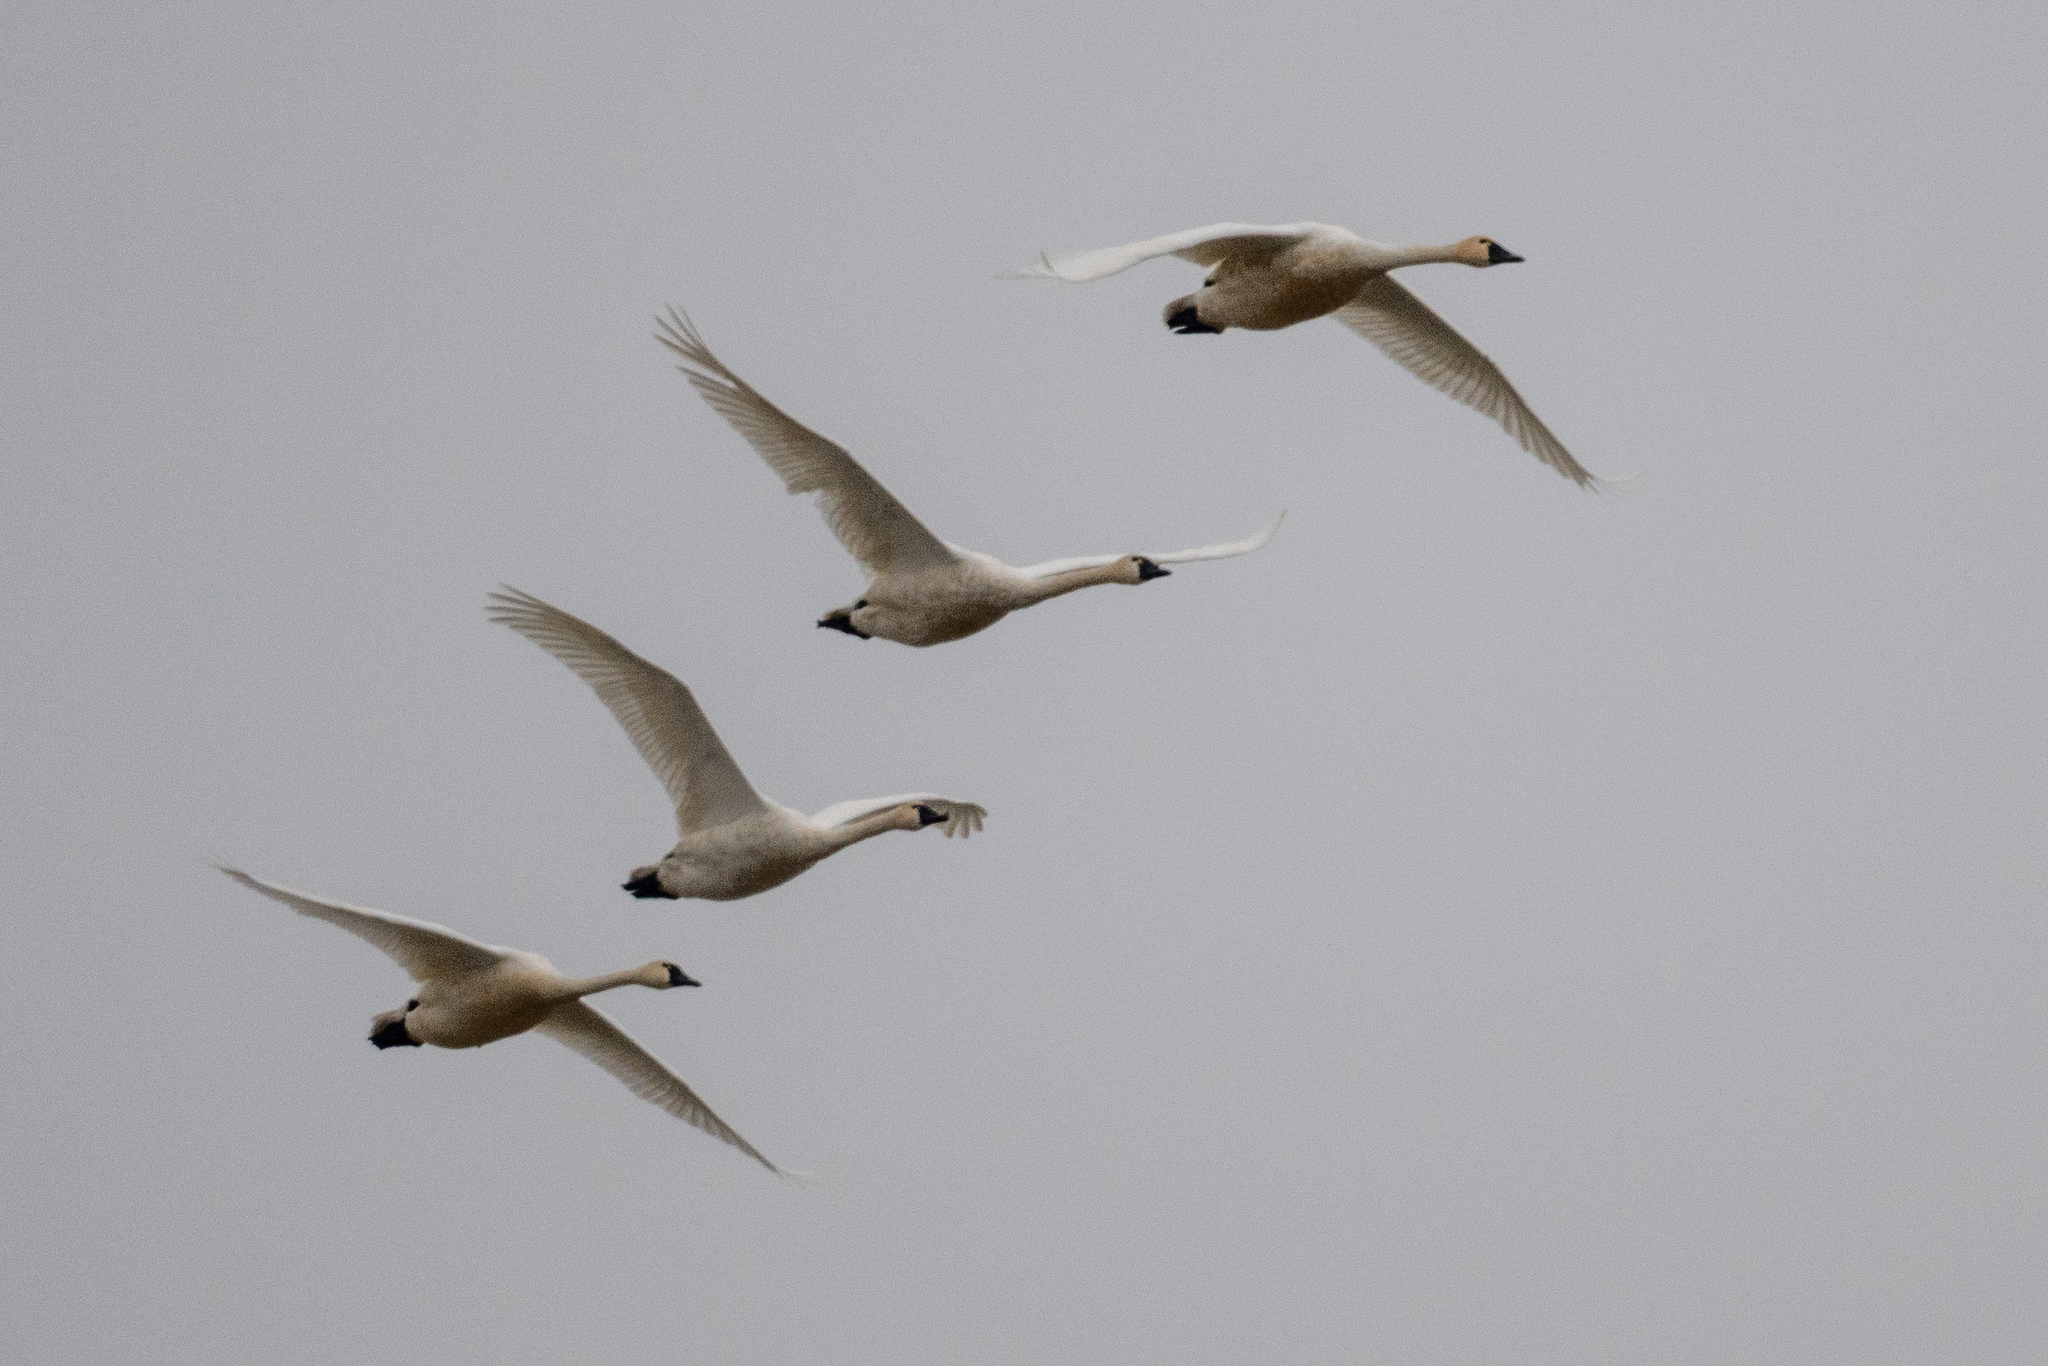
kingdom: Animalia
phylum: Chordata
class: Aves
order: Anseriformes
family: Anatidae
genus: Cygnus
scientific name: Cygnus columbianus
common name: Tundra swan
